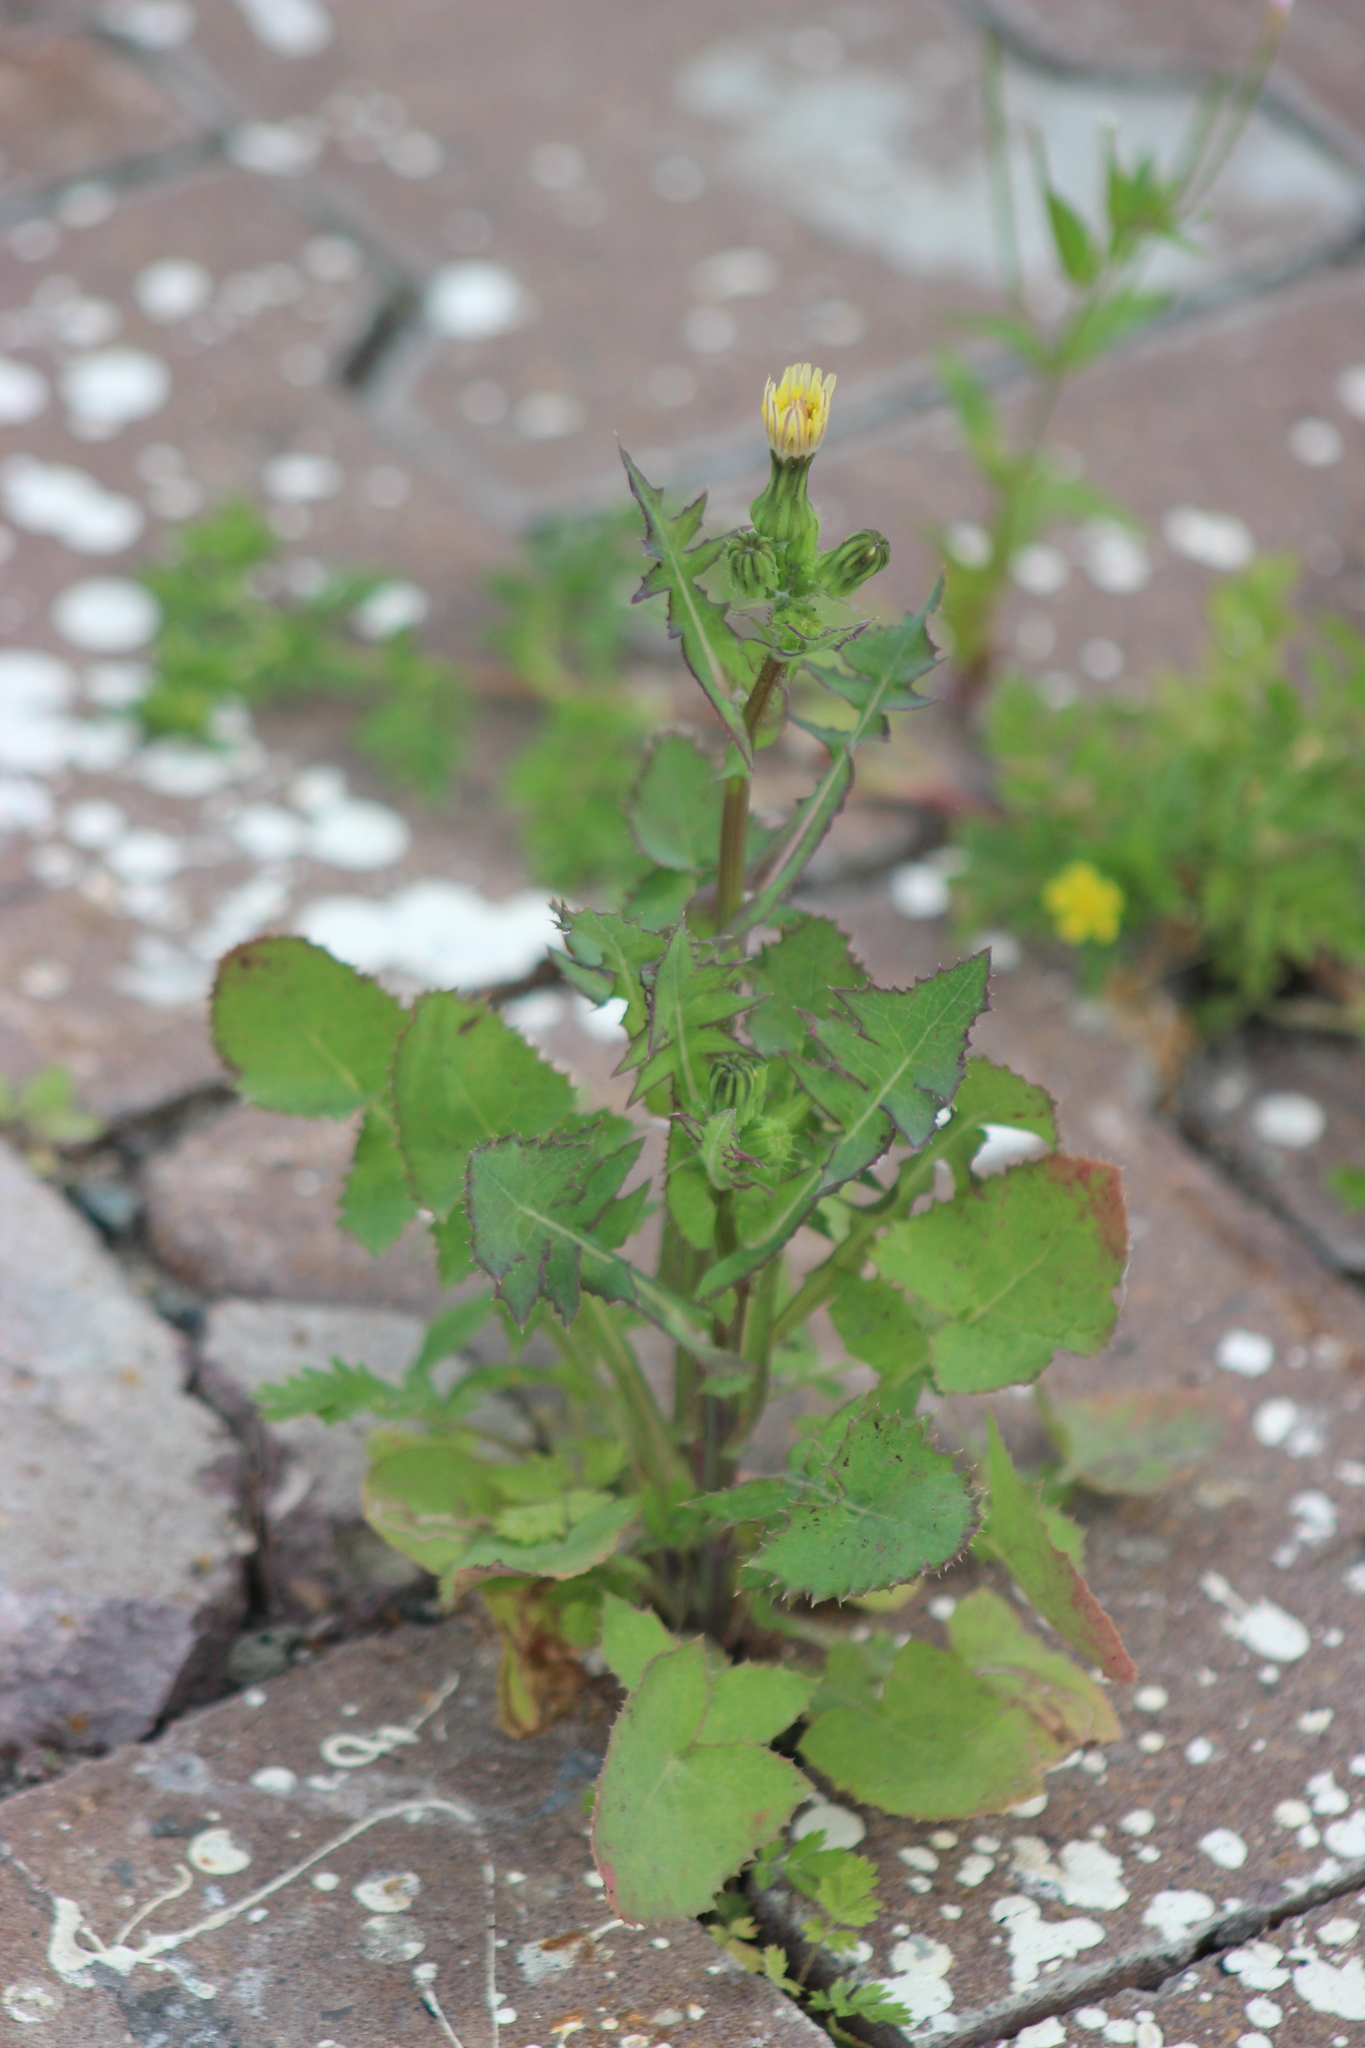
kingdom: Plantae
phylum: Tracheophyta
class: Magnoliopsida
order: Asterales
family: Asteraceae
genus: Sonchus
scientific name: Sonchus oleraceus
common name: Common sowthistle
